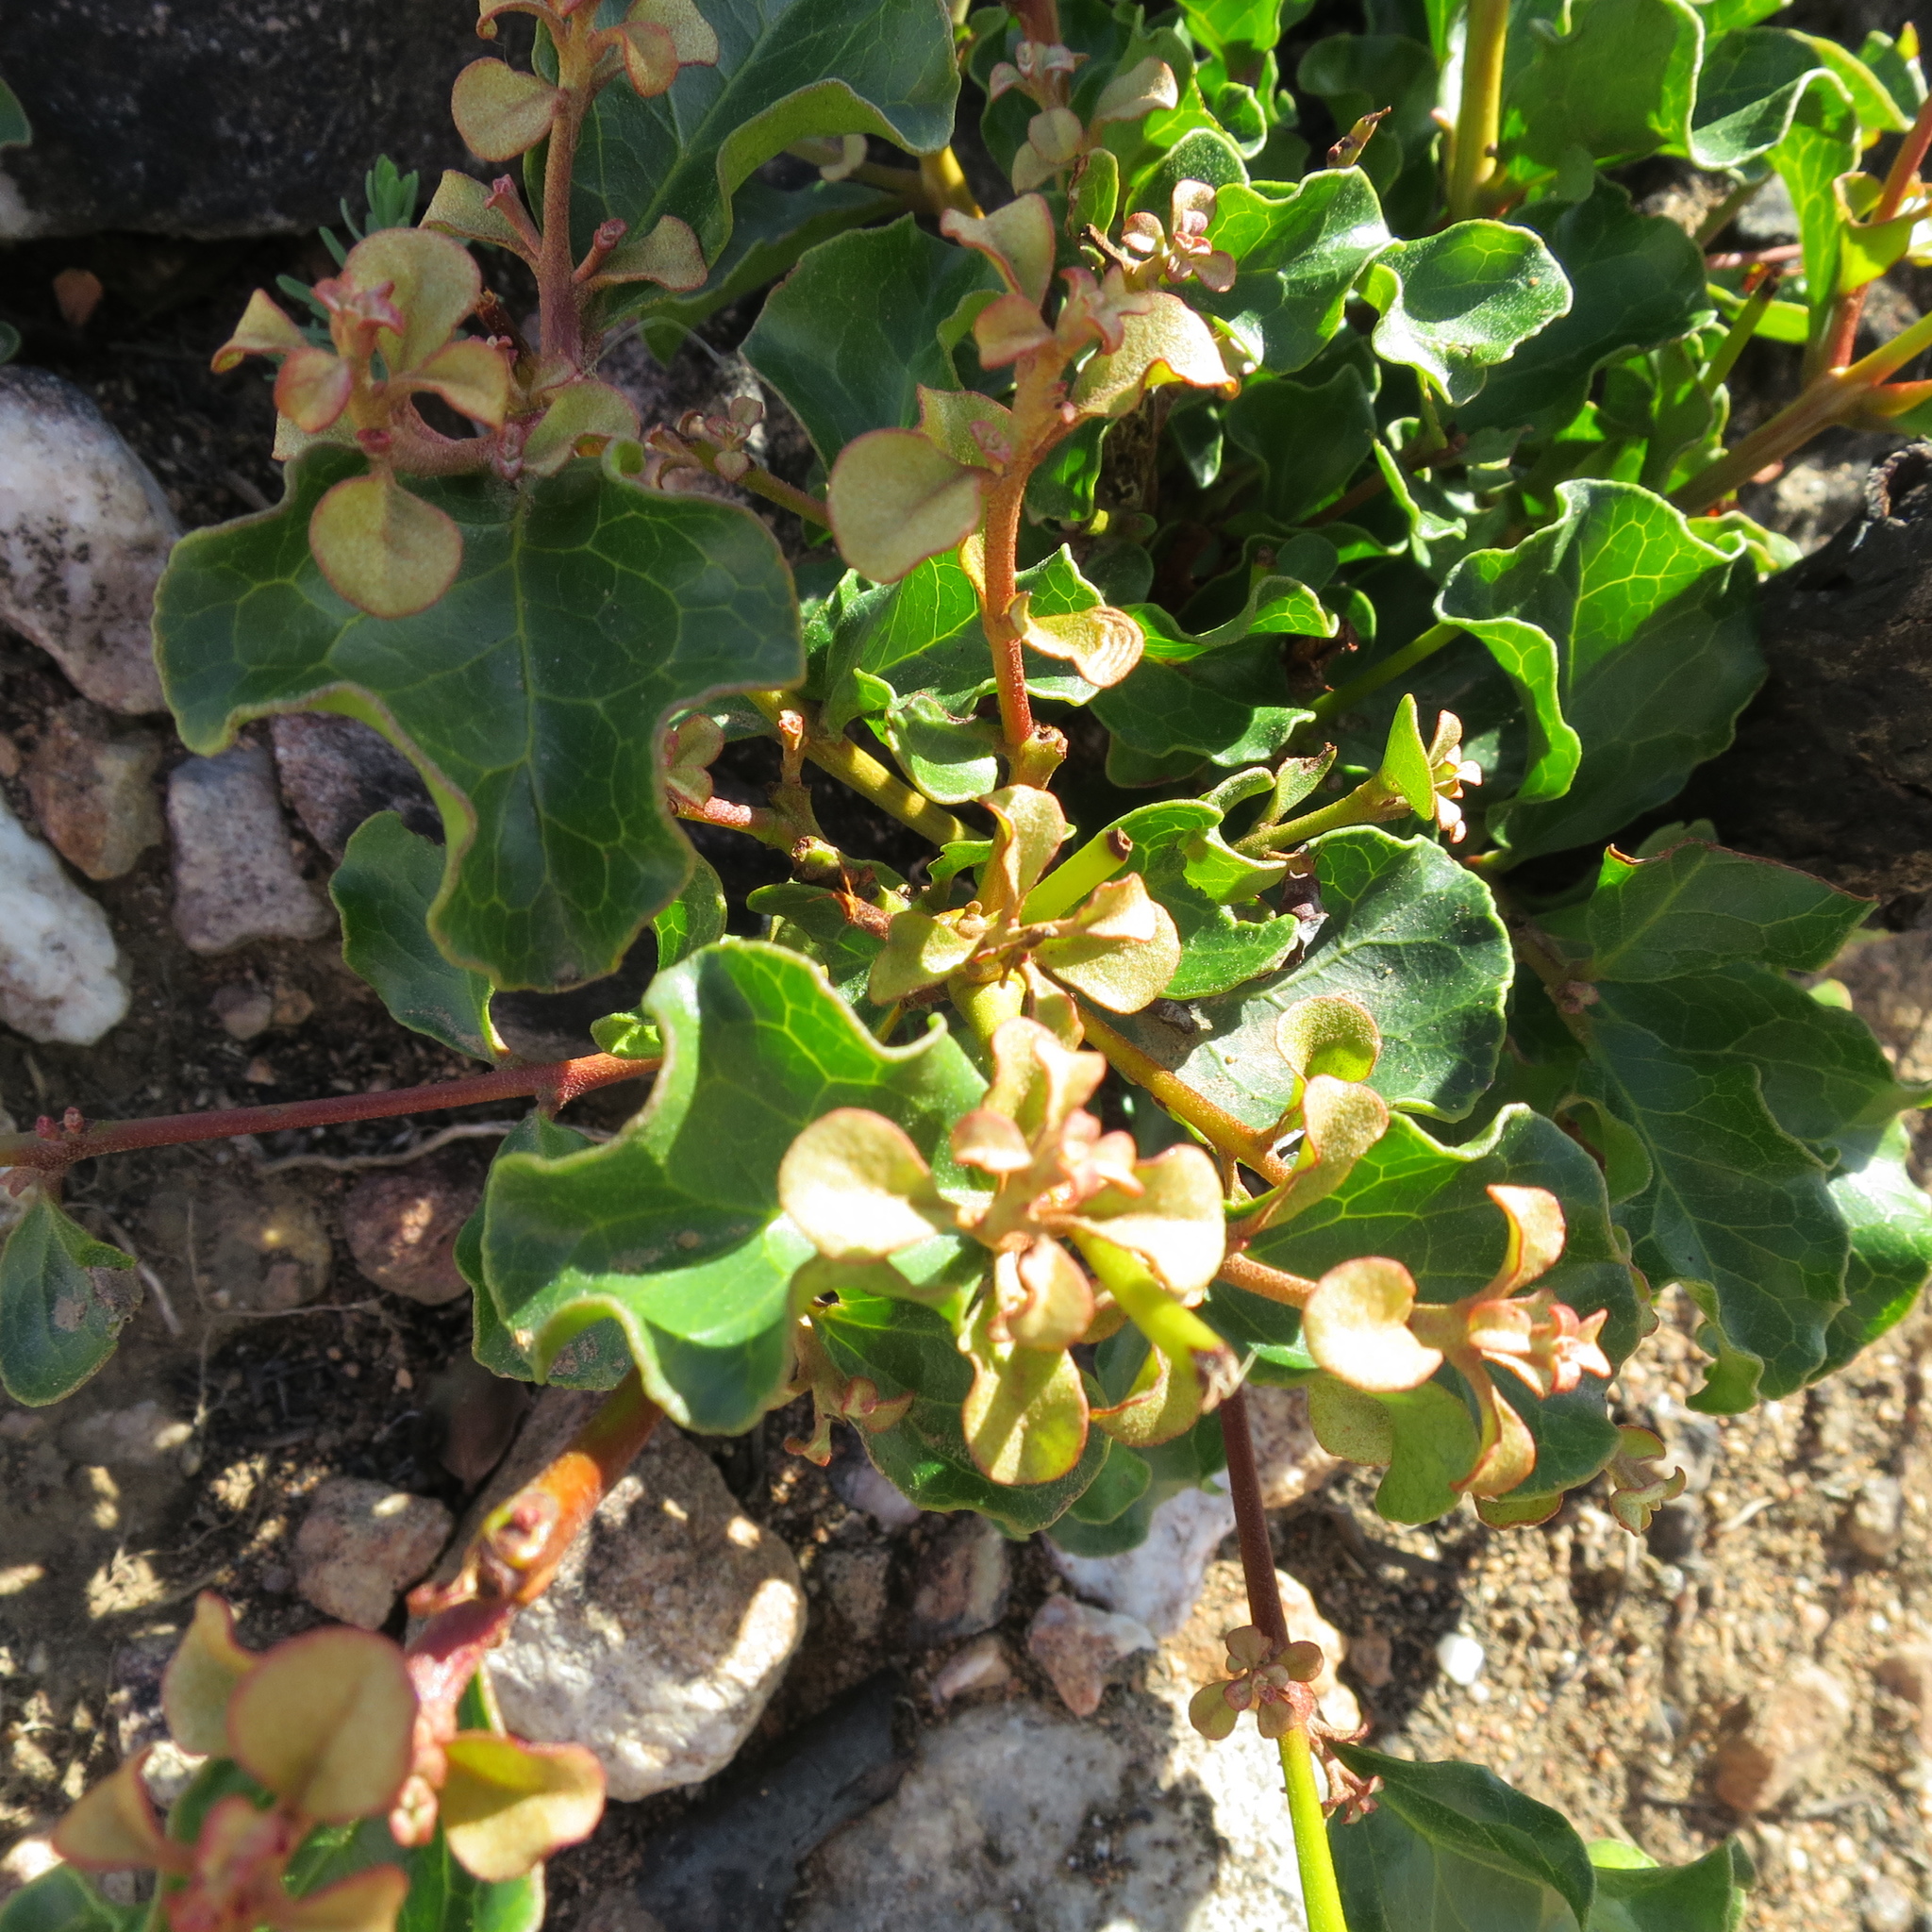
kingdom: Plantae
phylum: Tracheophyta
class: Magnoliopsida
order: Ericales
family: Ebenaceae
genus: Euclea
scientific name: Euclea undulata
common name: Small-leaved guarri
